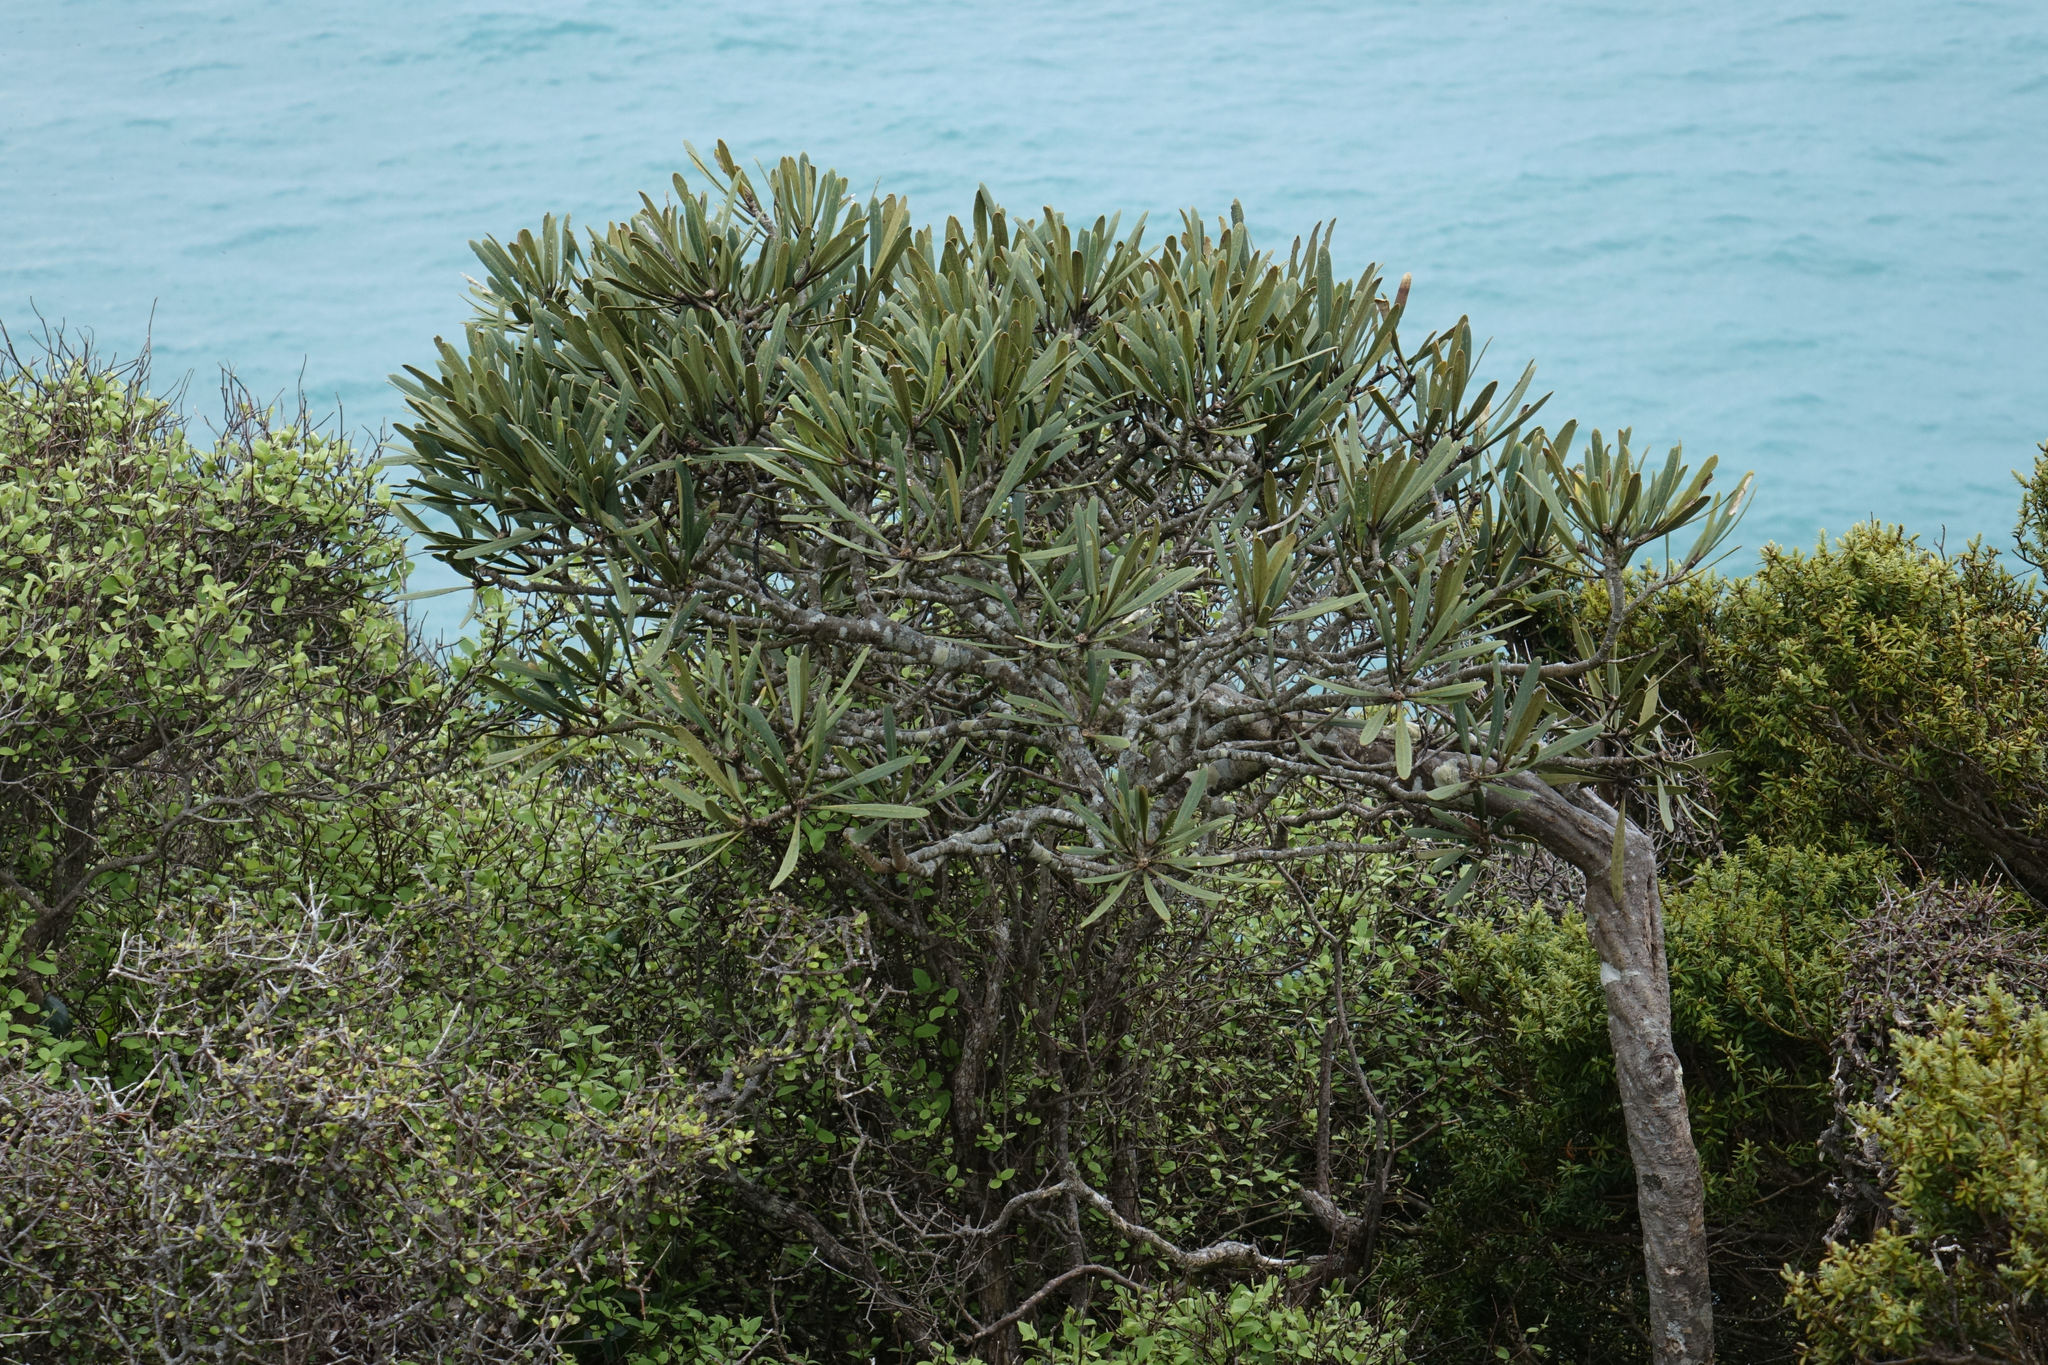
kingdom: Plantae
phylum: Tracheophyta
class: Magnoliopsida
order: Apiales
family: Araliaceae
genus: Pseudopanax
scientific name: Pseudopanax ferox
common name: Fierce lancewood
